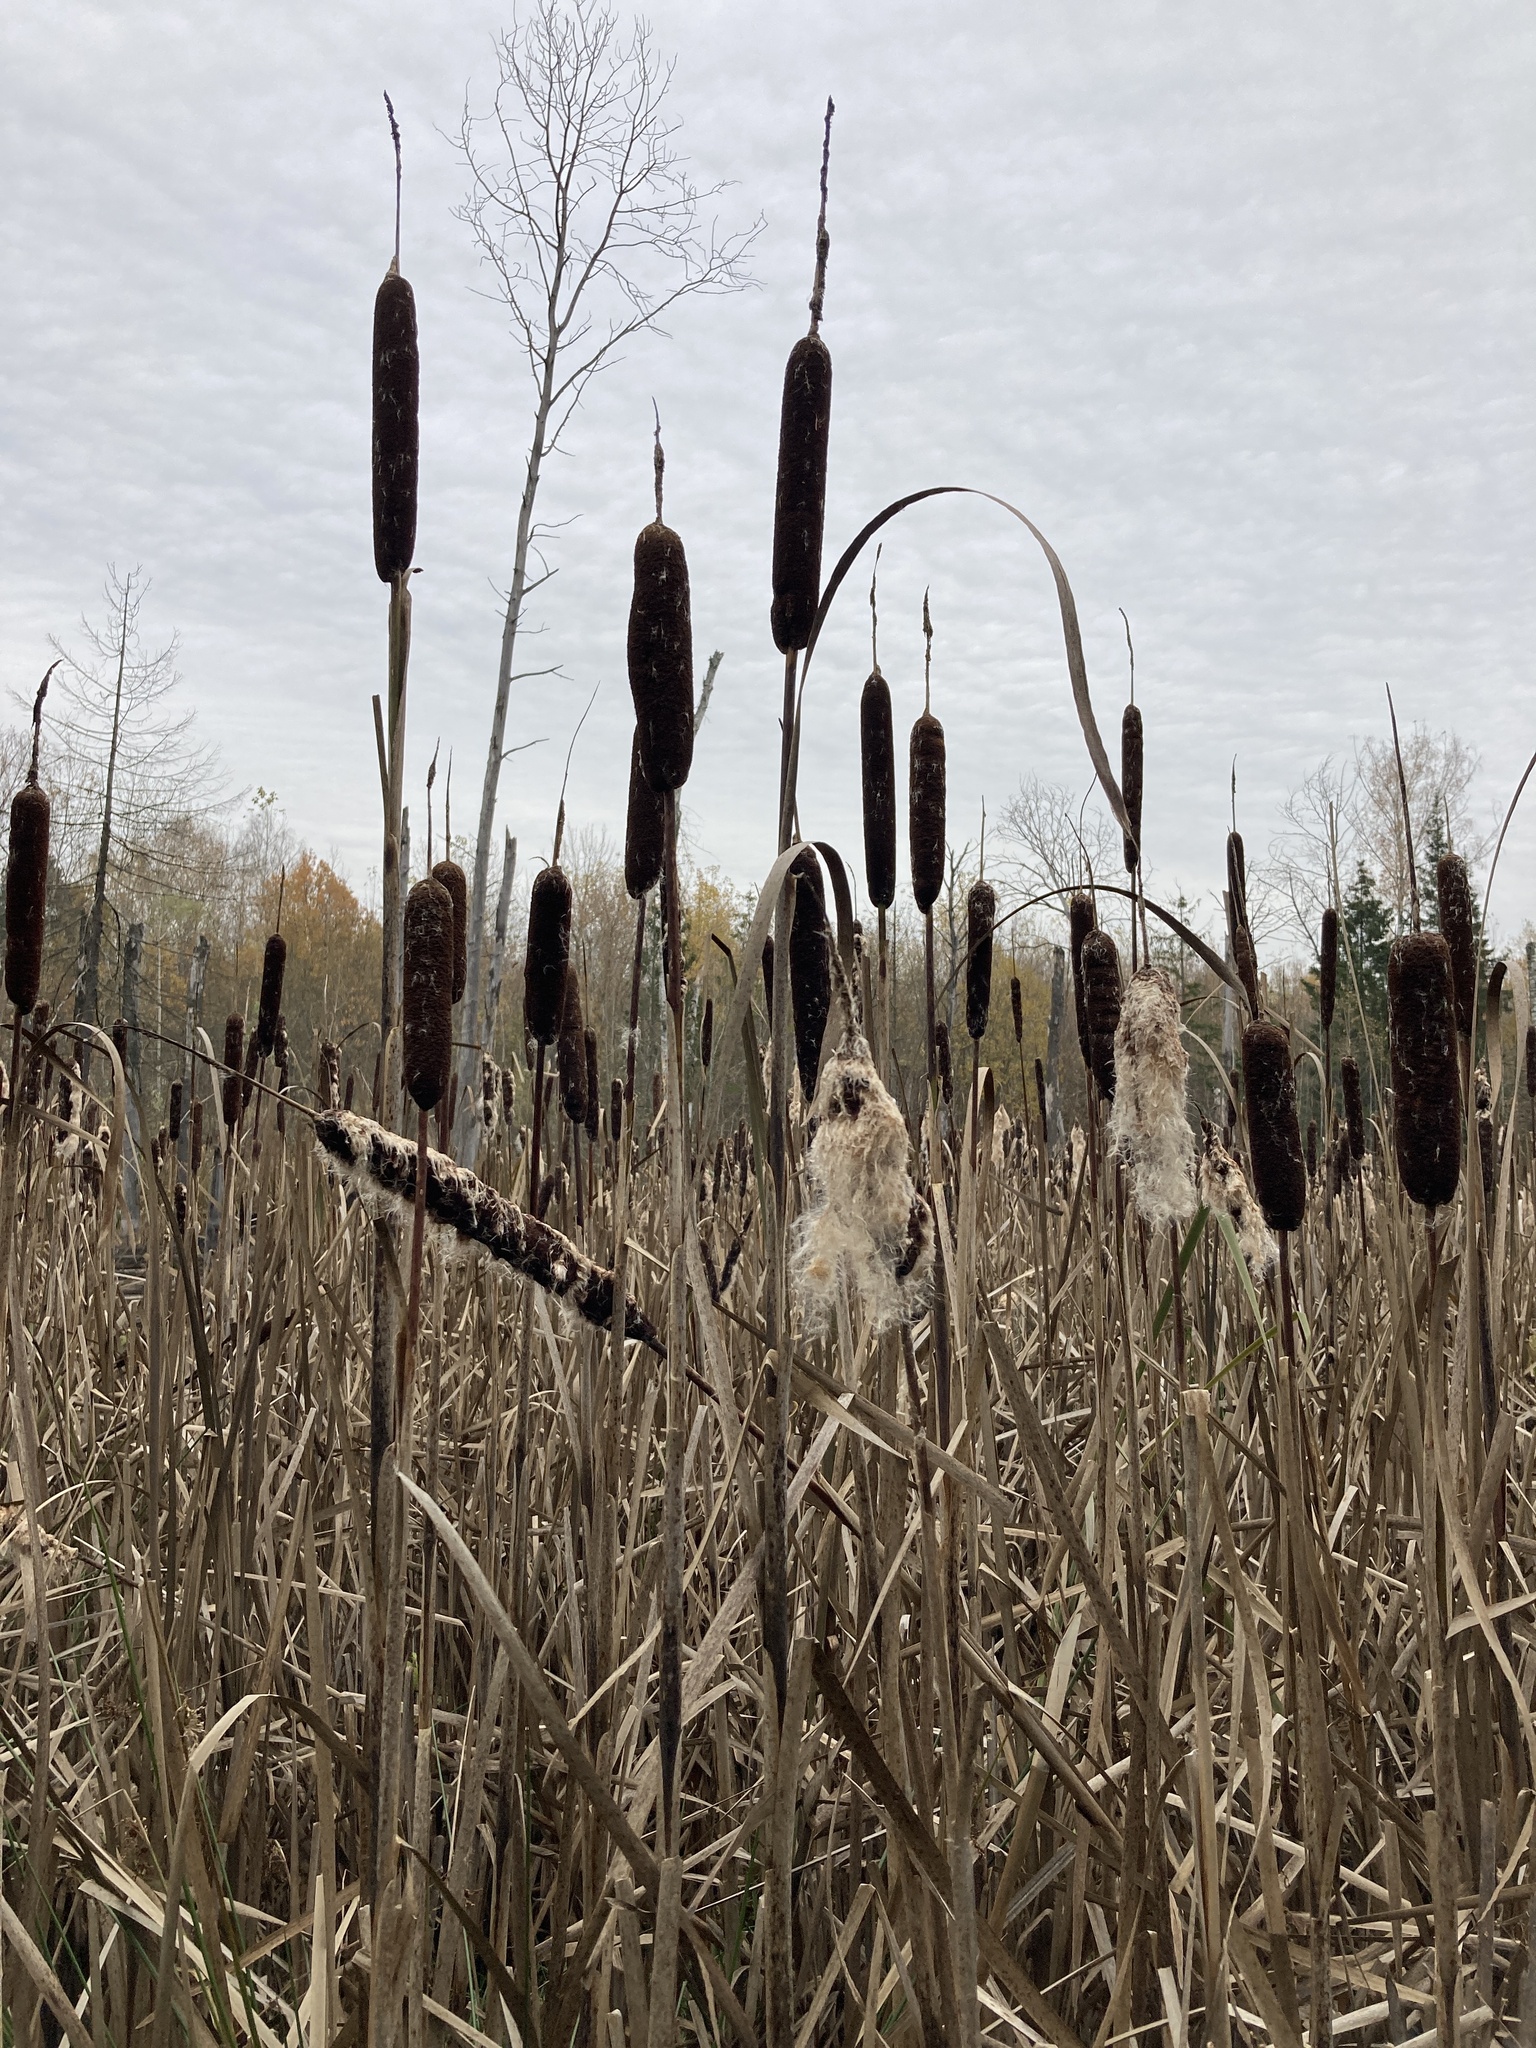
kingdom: Plantae
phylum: Tracheophyta
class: Liliopsida
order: Poales
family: Typhaceae
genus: Typha
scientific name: Typha latifolia
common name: Broadleaf cattail
